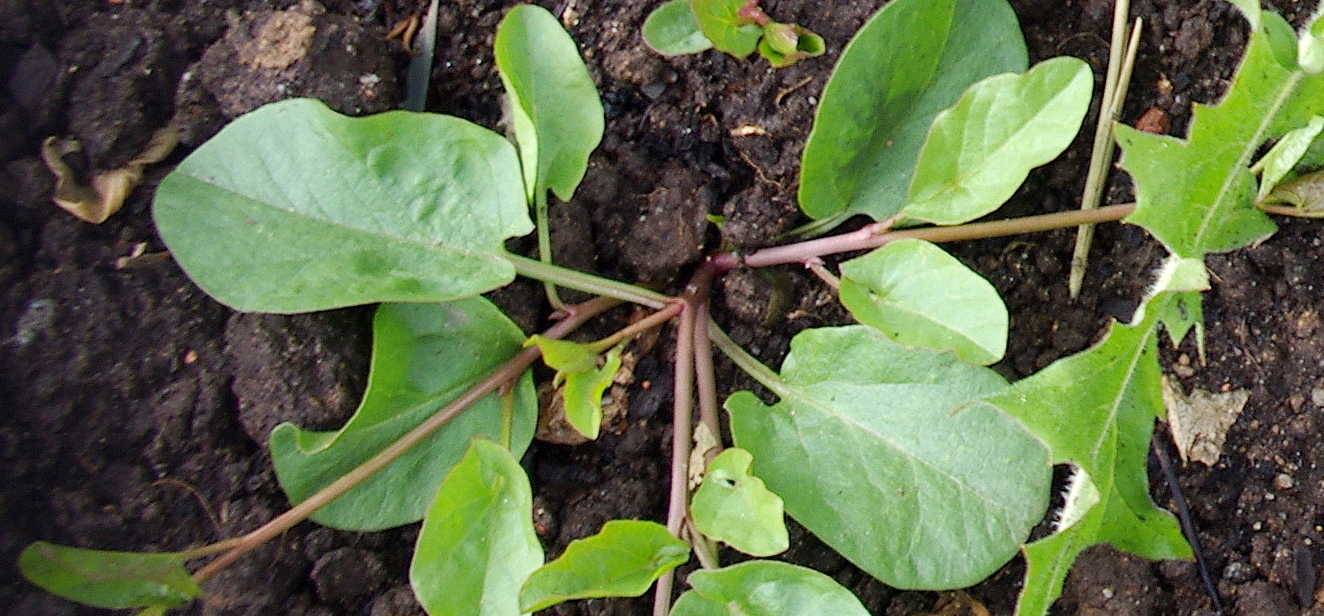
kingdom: Plantae
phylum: Tracheophyta
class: Magnoliopsida
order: Solanales
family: Convolvulaceae
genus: Convolvulus
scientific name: Convolvulus arvensis
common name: Field bindweed
